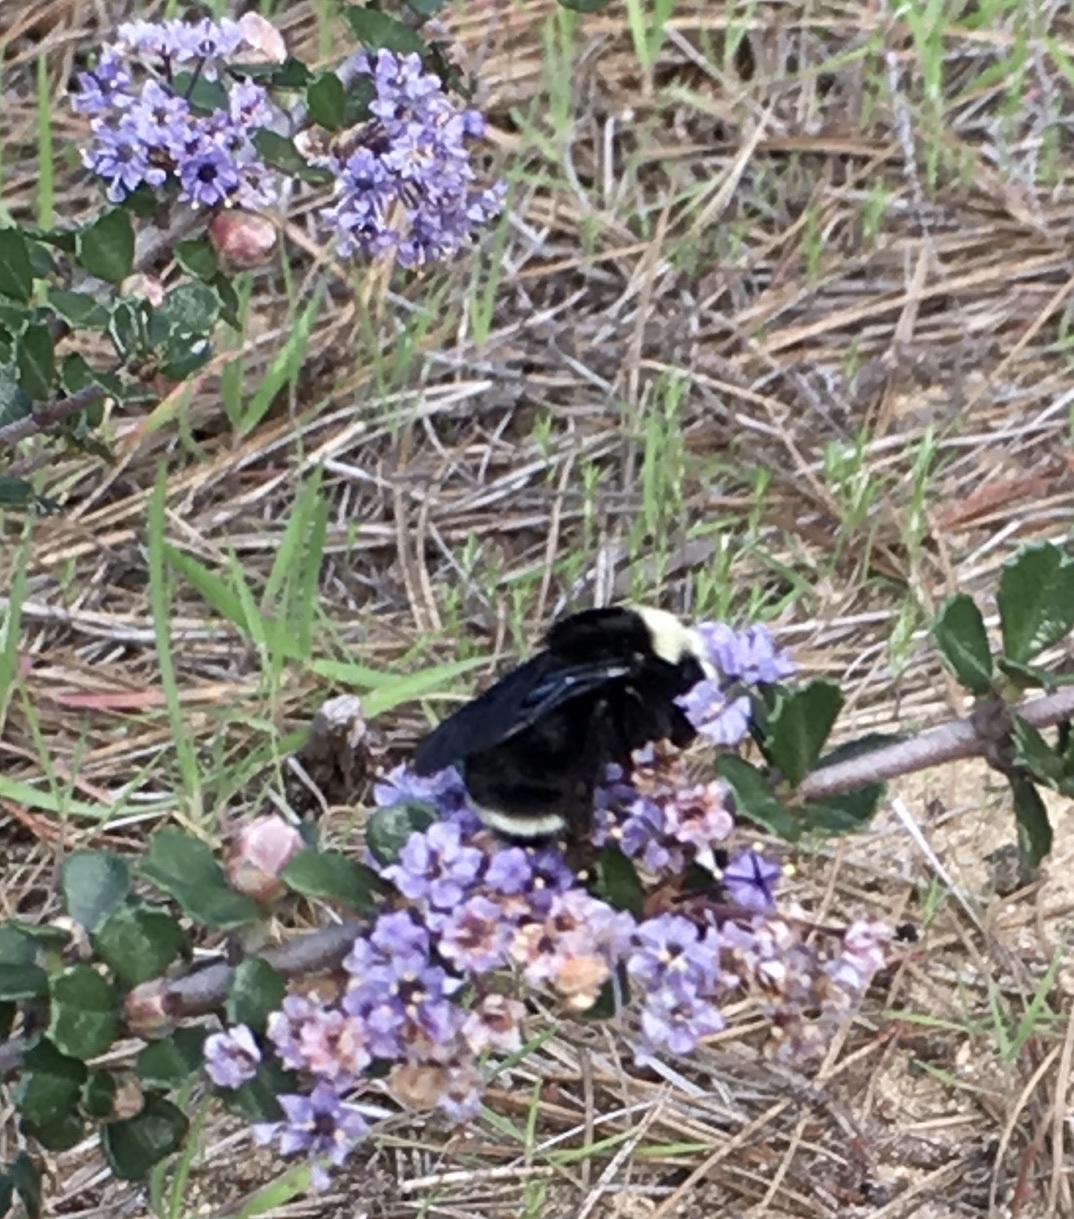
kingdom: Animalia
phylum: Arthropoda
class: Insecta
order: Hymenoptera
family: Apidae
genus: Bombus
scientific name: Bombus vosnesenskii
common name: Vosnesensky bumble bee
